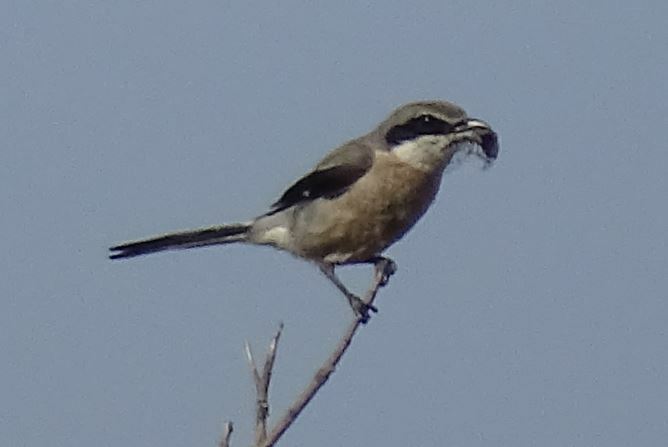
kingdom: Animalia
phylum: Chordata
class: Aves
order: Passeriformes
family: Laniidae
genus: Lanius
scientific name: Lanius meridionalis
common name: Iberian grey shrike
